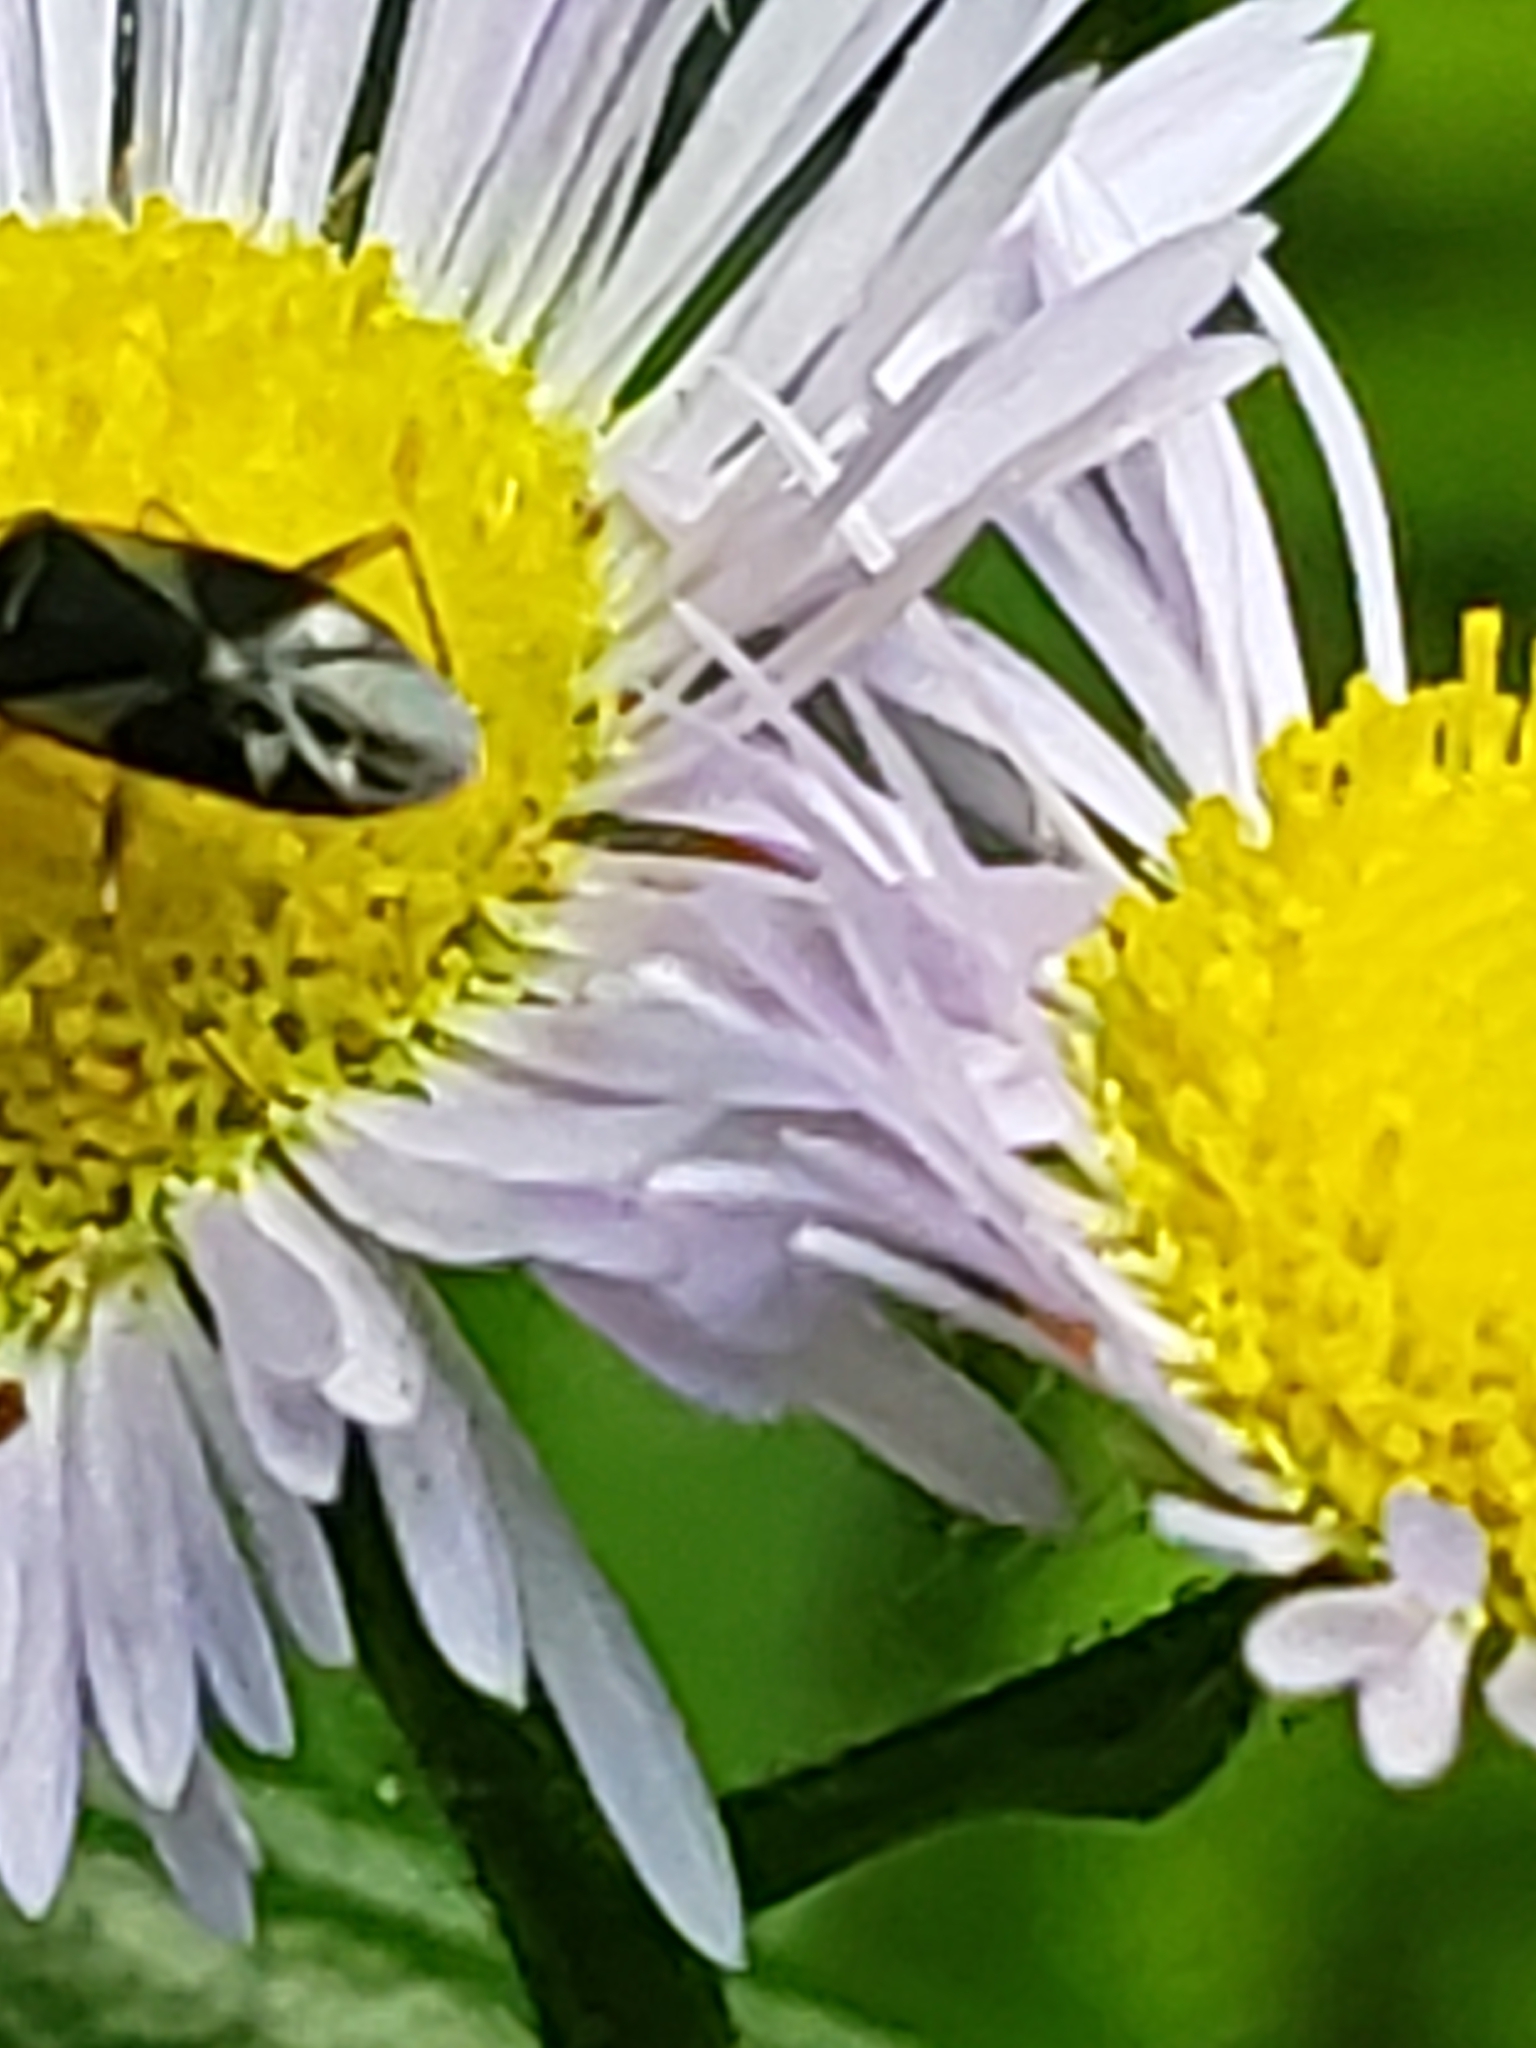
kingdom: Animalia
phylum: Arthropoda
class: Insecta
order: Hemiptera
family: Miridae
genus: Plagiognathus
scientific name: Plagiognathus obscurus
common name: Obscure plant bug
